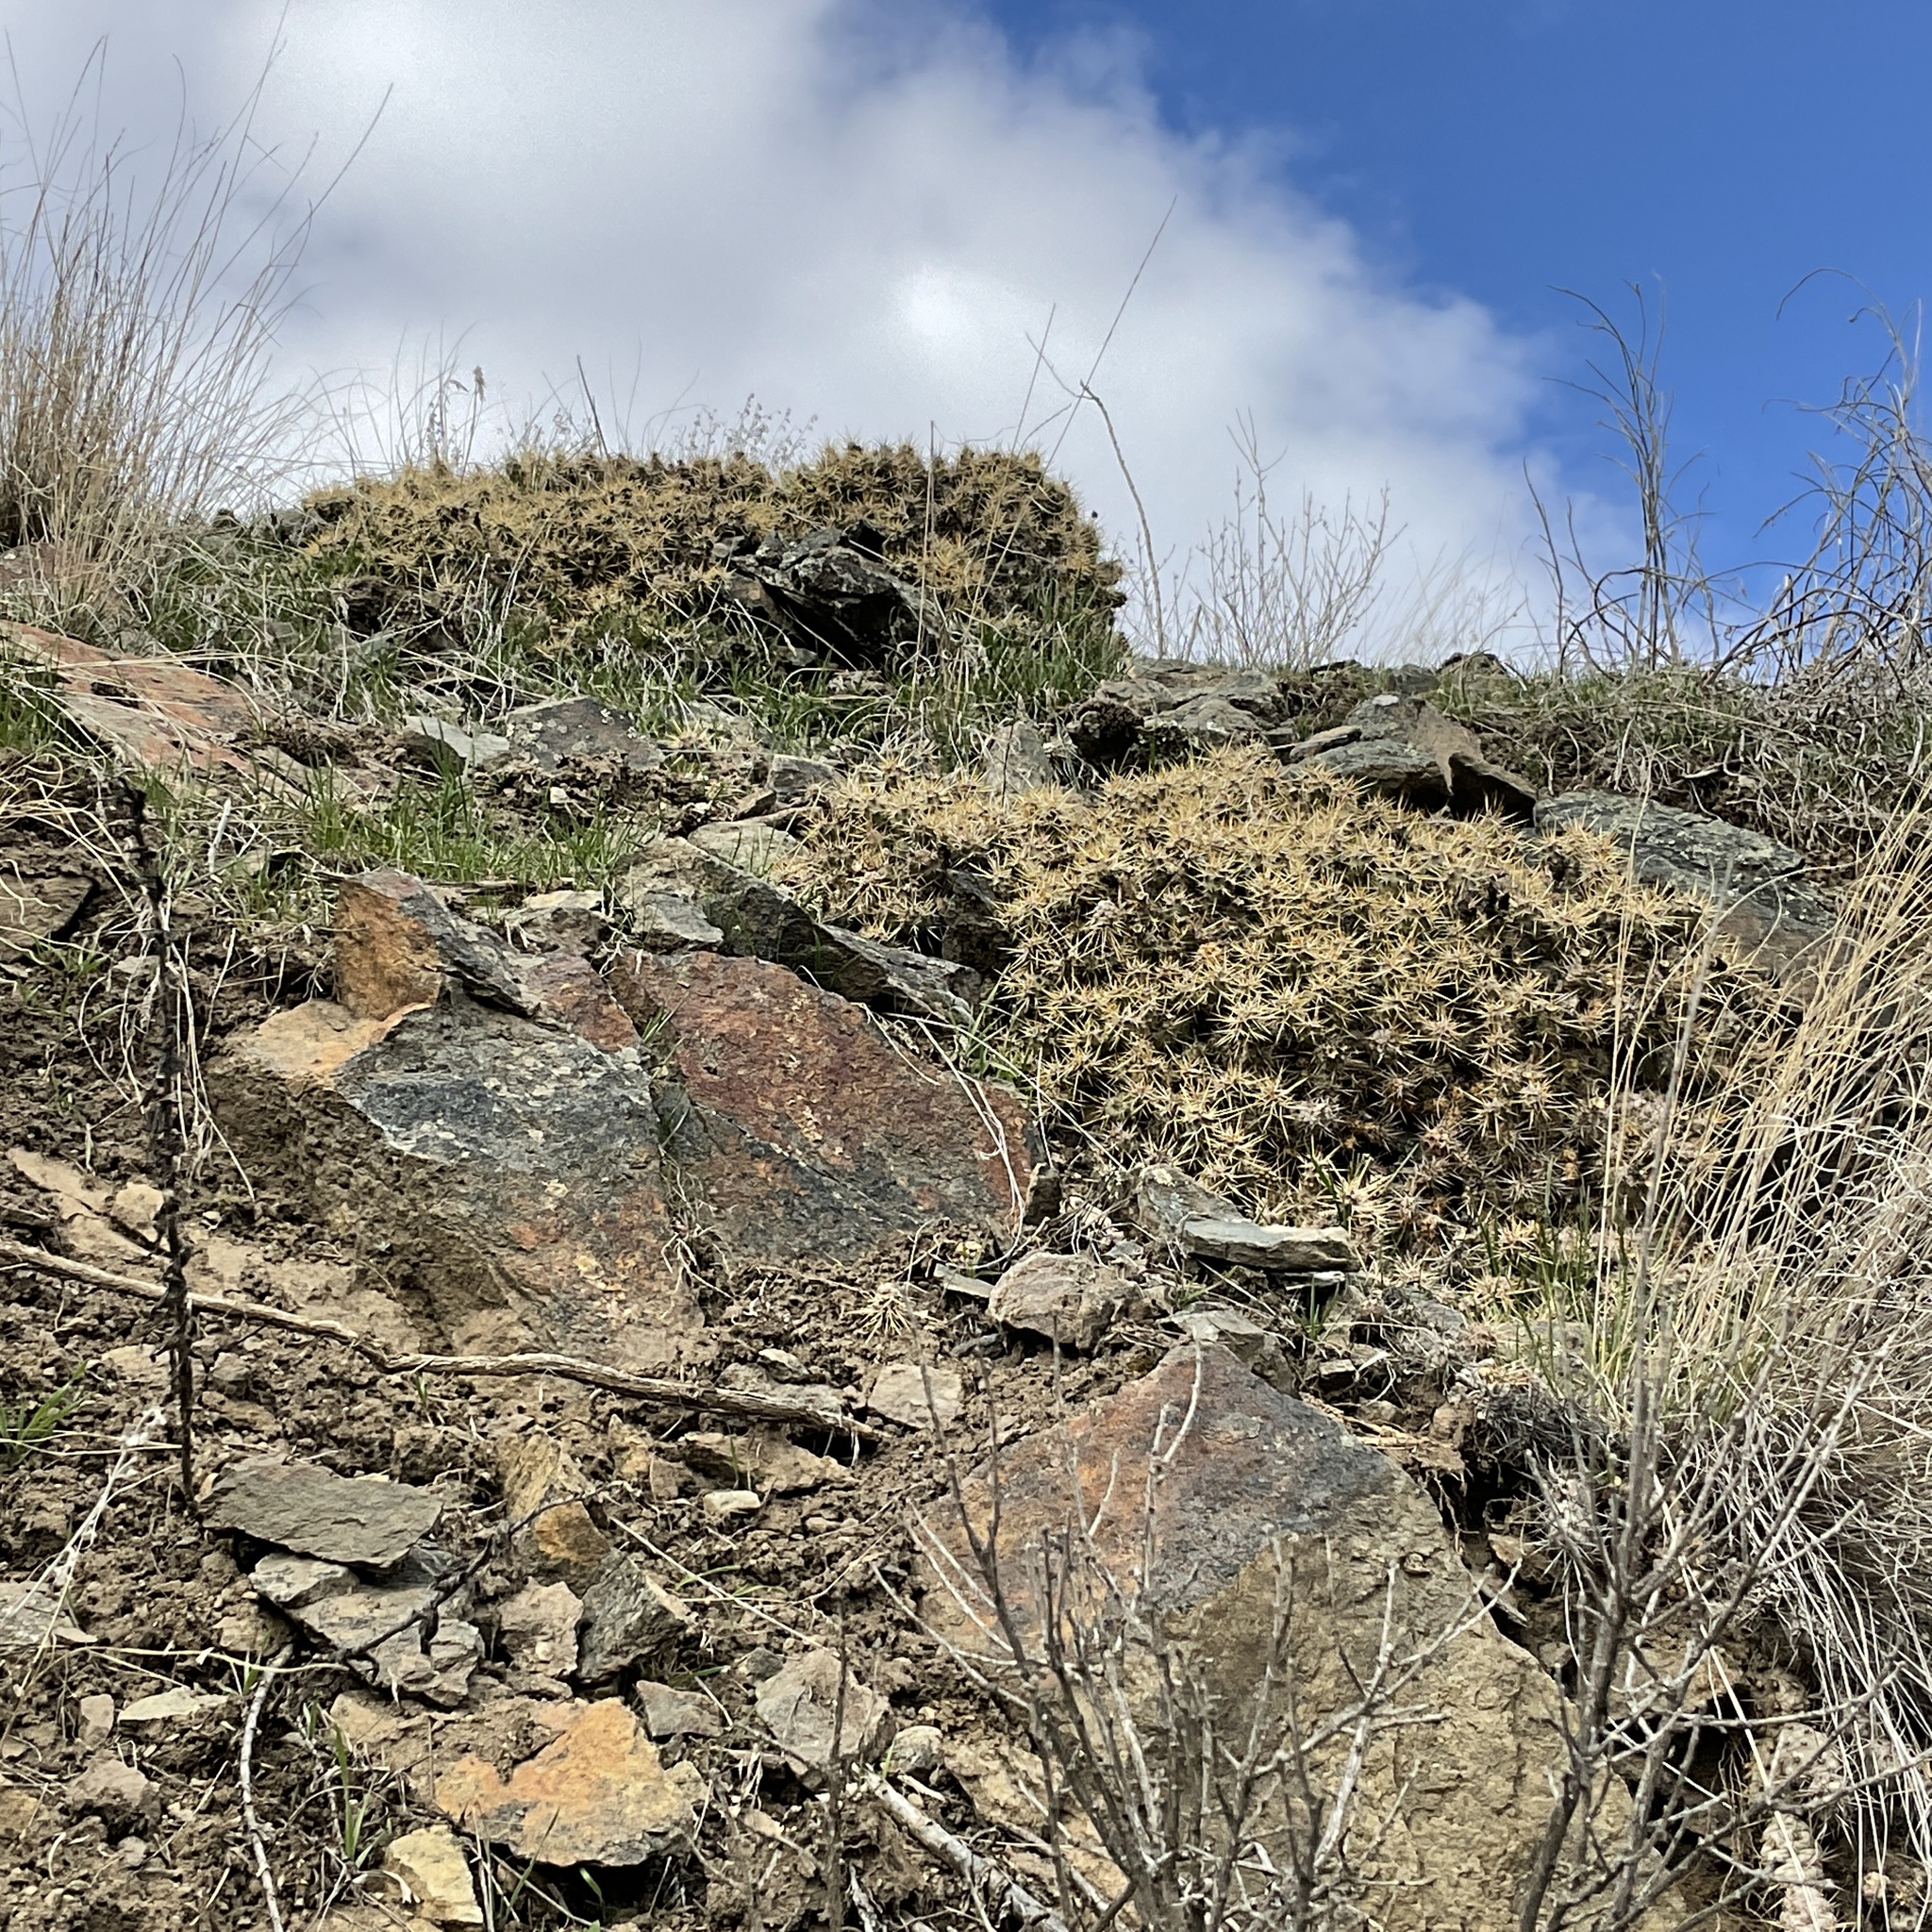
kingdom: Plantae
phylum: Tracheophyta
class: Magnoliopsida
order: Caryophyllales
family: Cactaceae
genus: Opuntia
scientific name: Opuntia fragilis
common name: Brittle cactus
